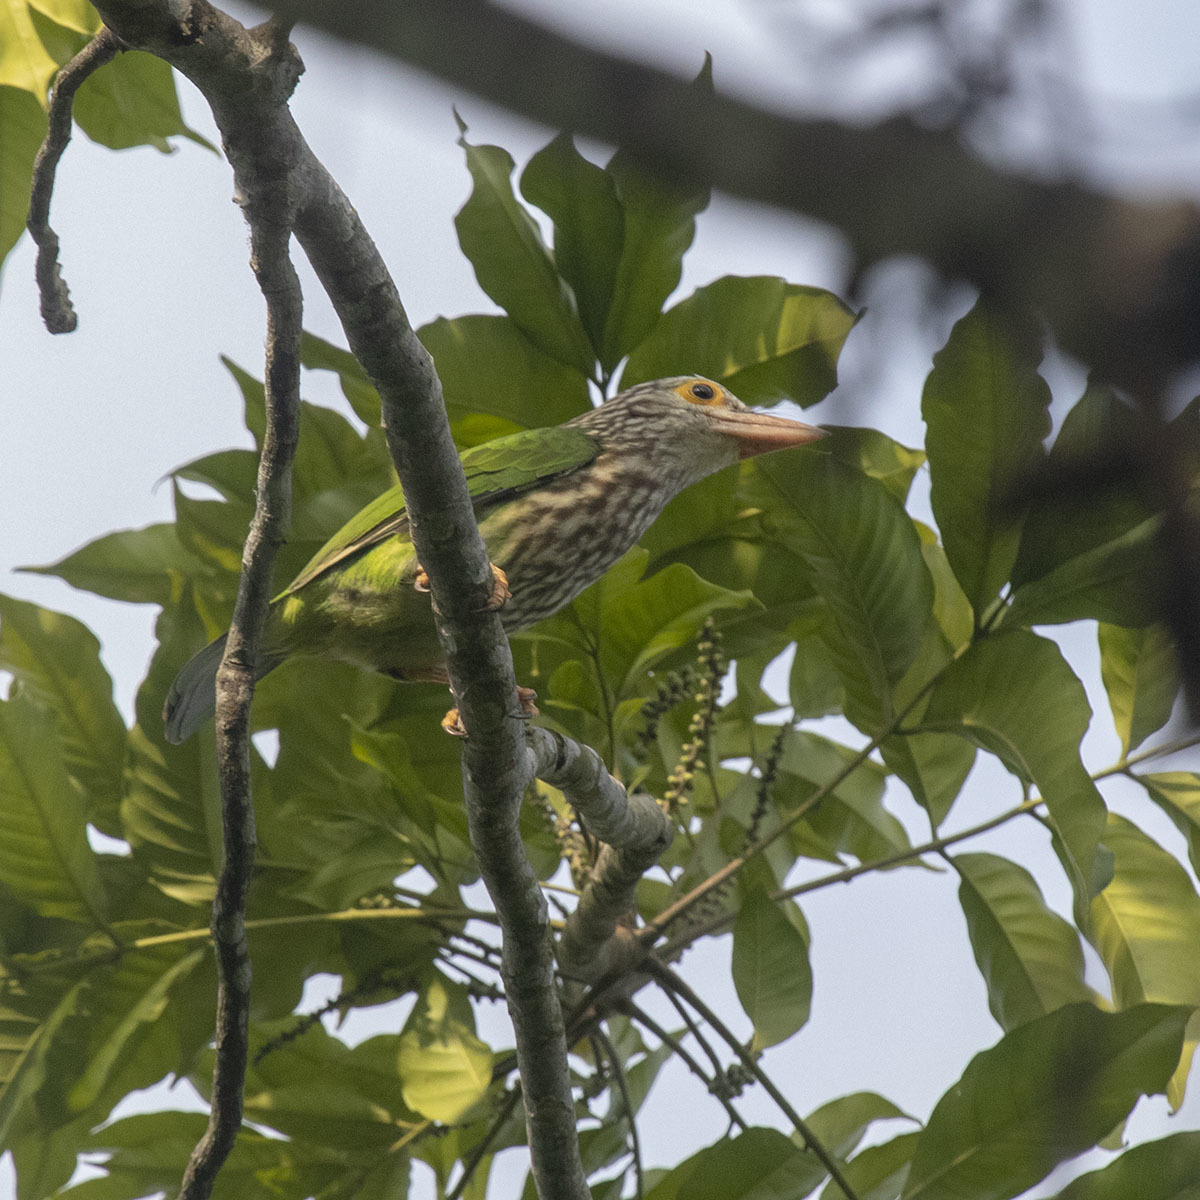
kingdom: Animalia
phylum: Chordata
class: Aves
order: Piciformes
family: Megalaimidae
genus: Psilopogon
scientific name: Psilopogon lineatus
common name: Lineated barbet
